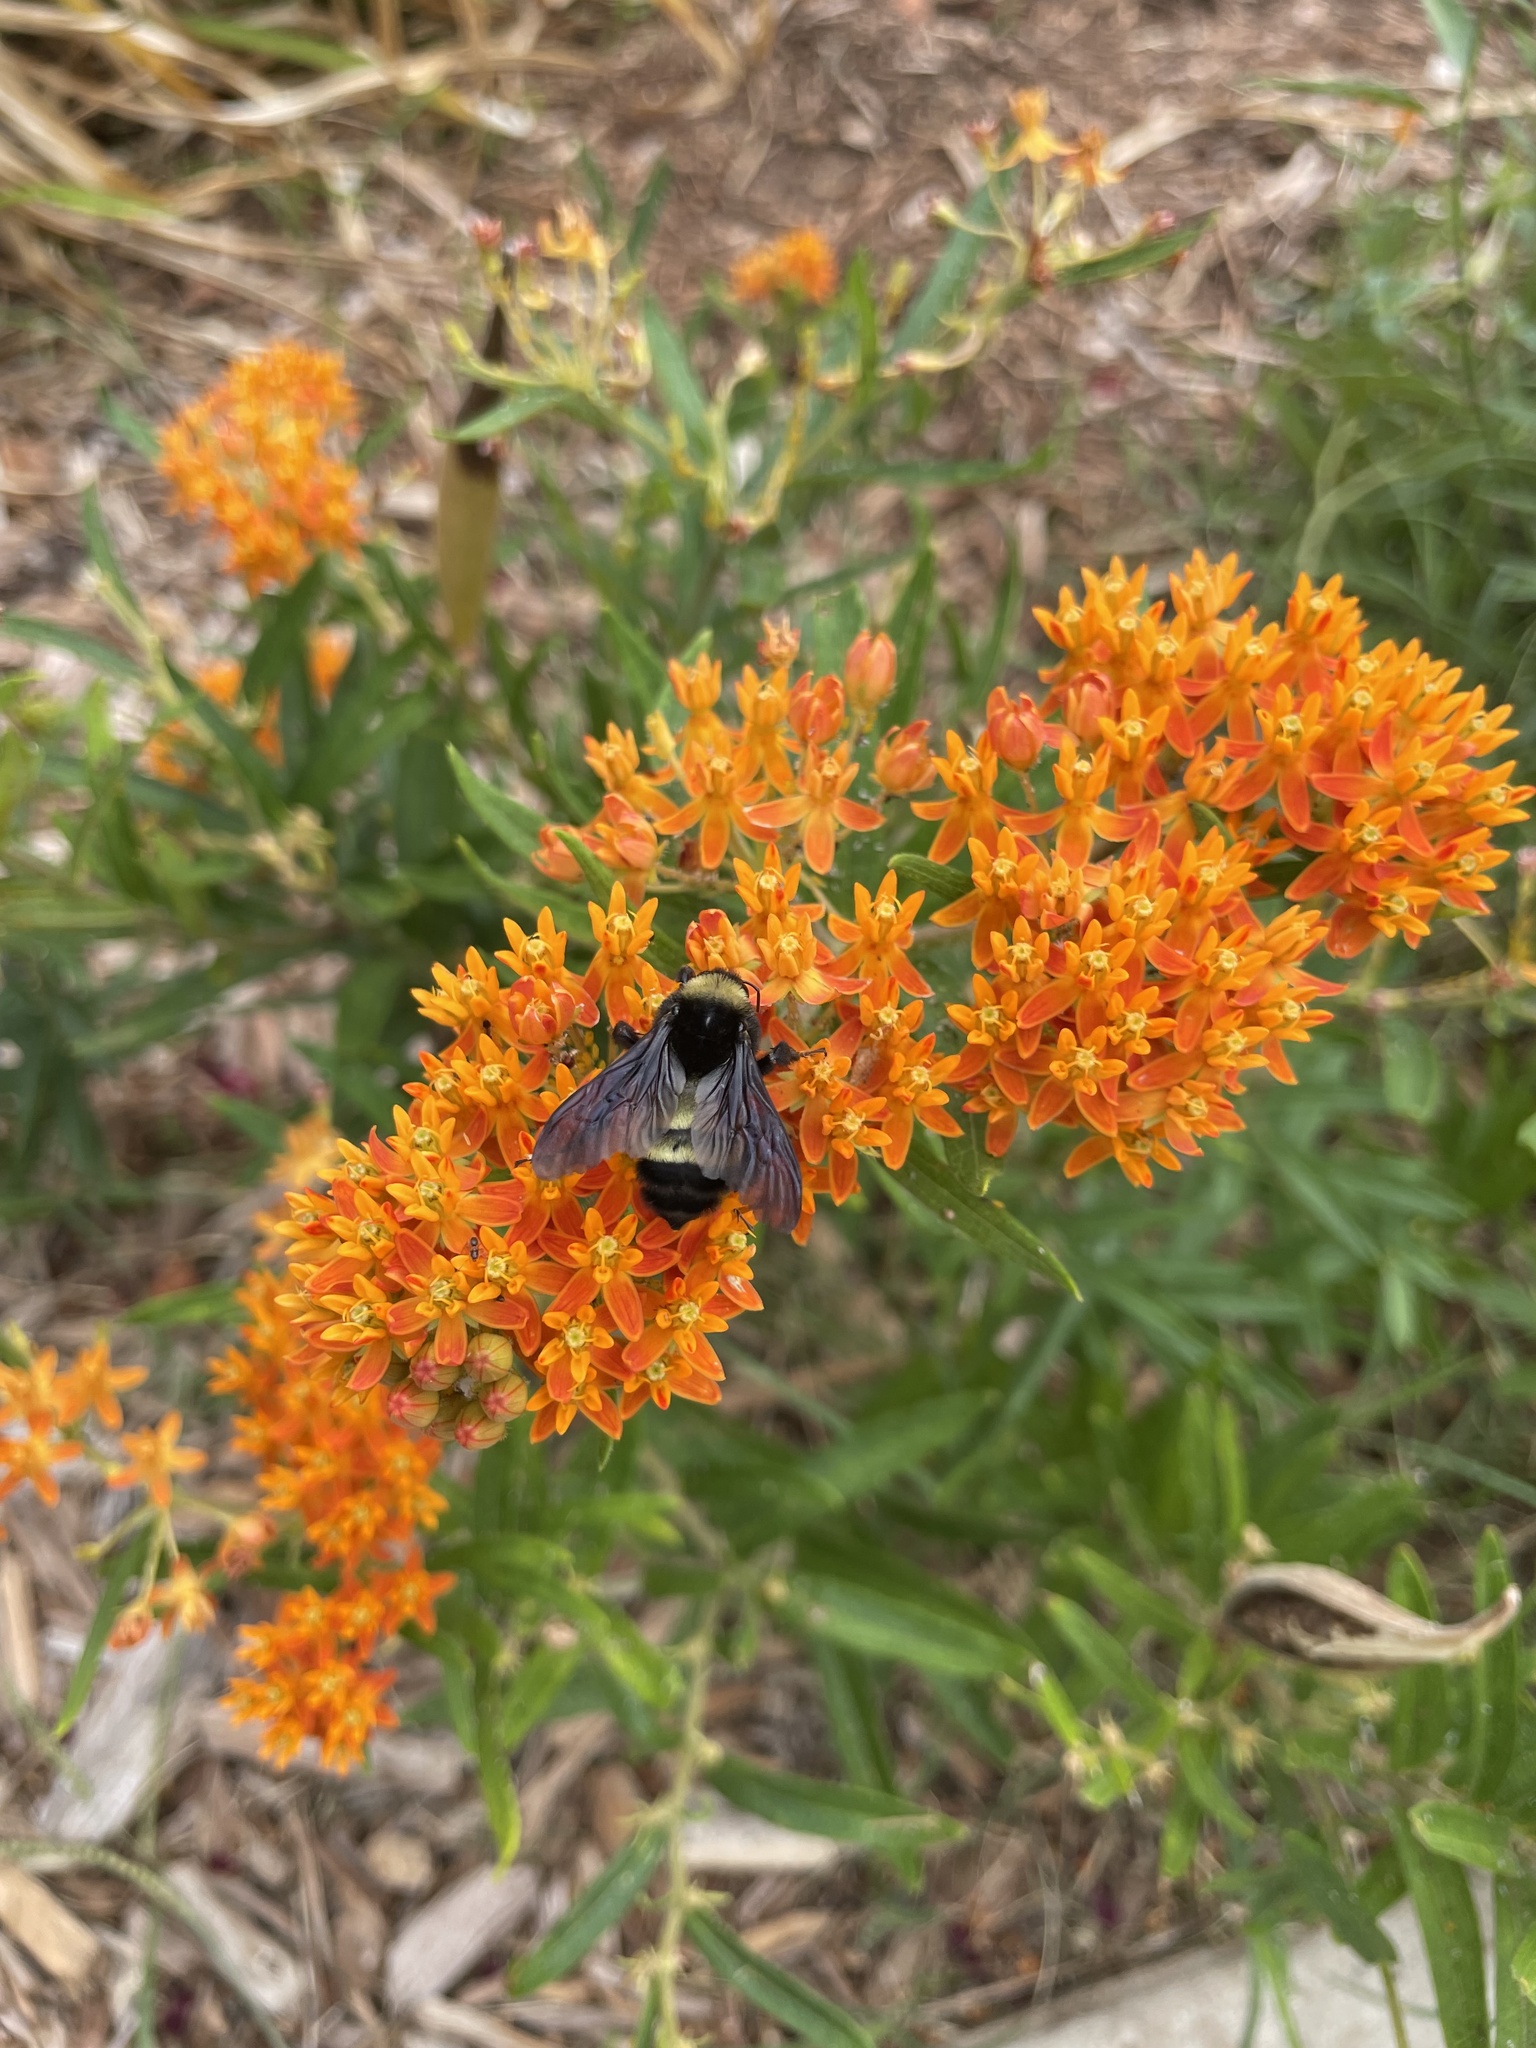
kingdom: Animalia
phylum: Arthropoda
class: Insecta
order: Hymenoptera
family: Apidae
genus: Bombus
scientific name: Bombus pensylvanicus
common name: Bumble bee
